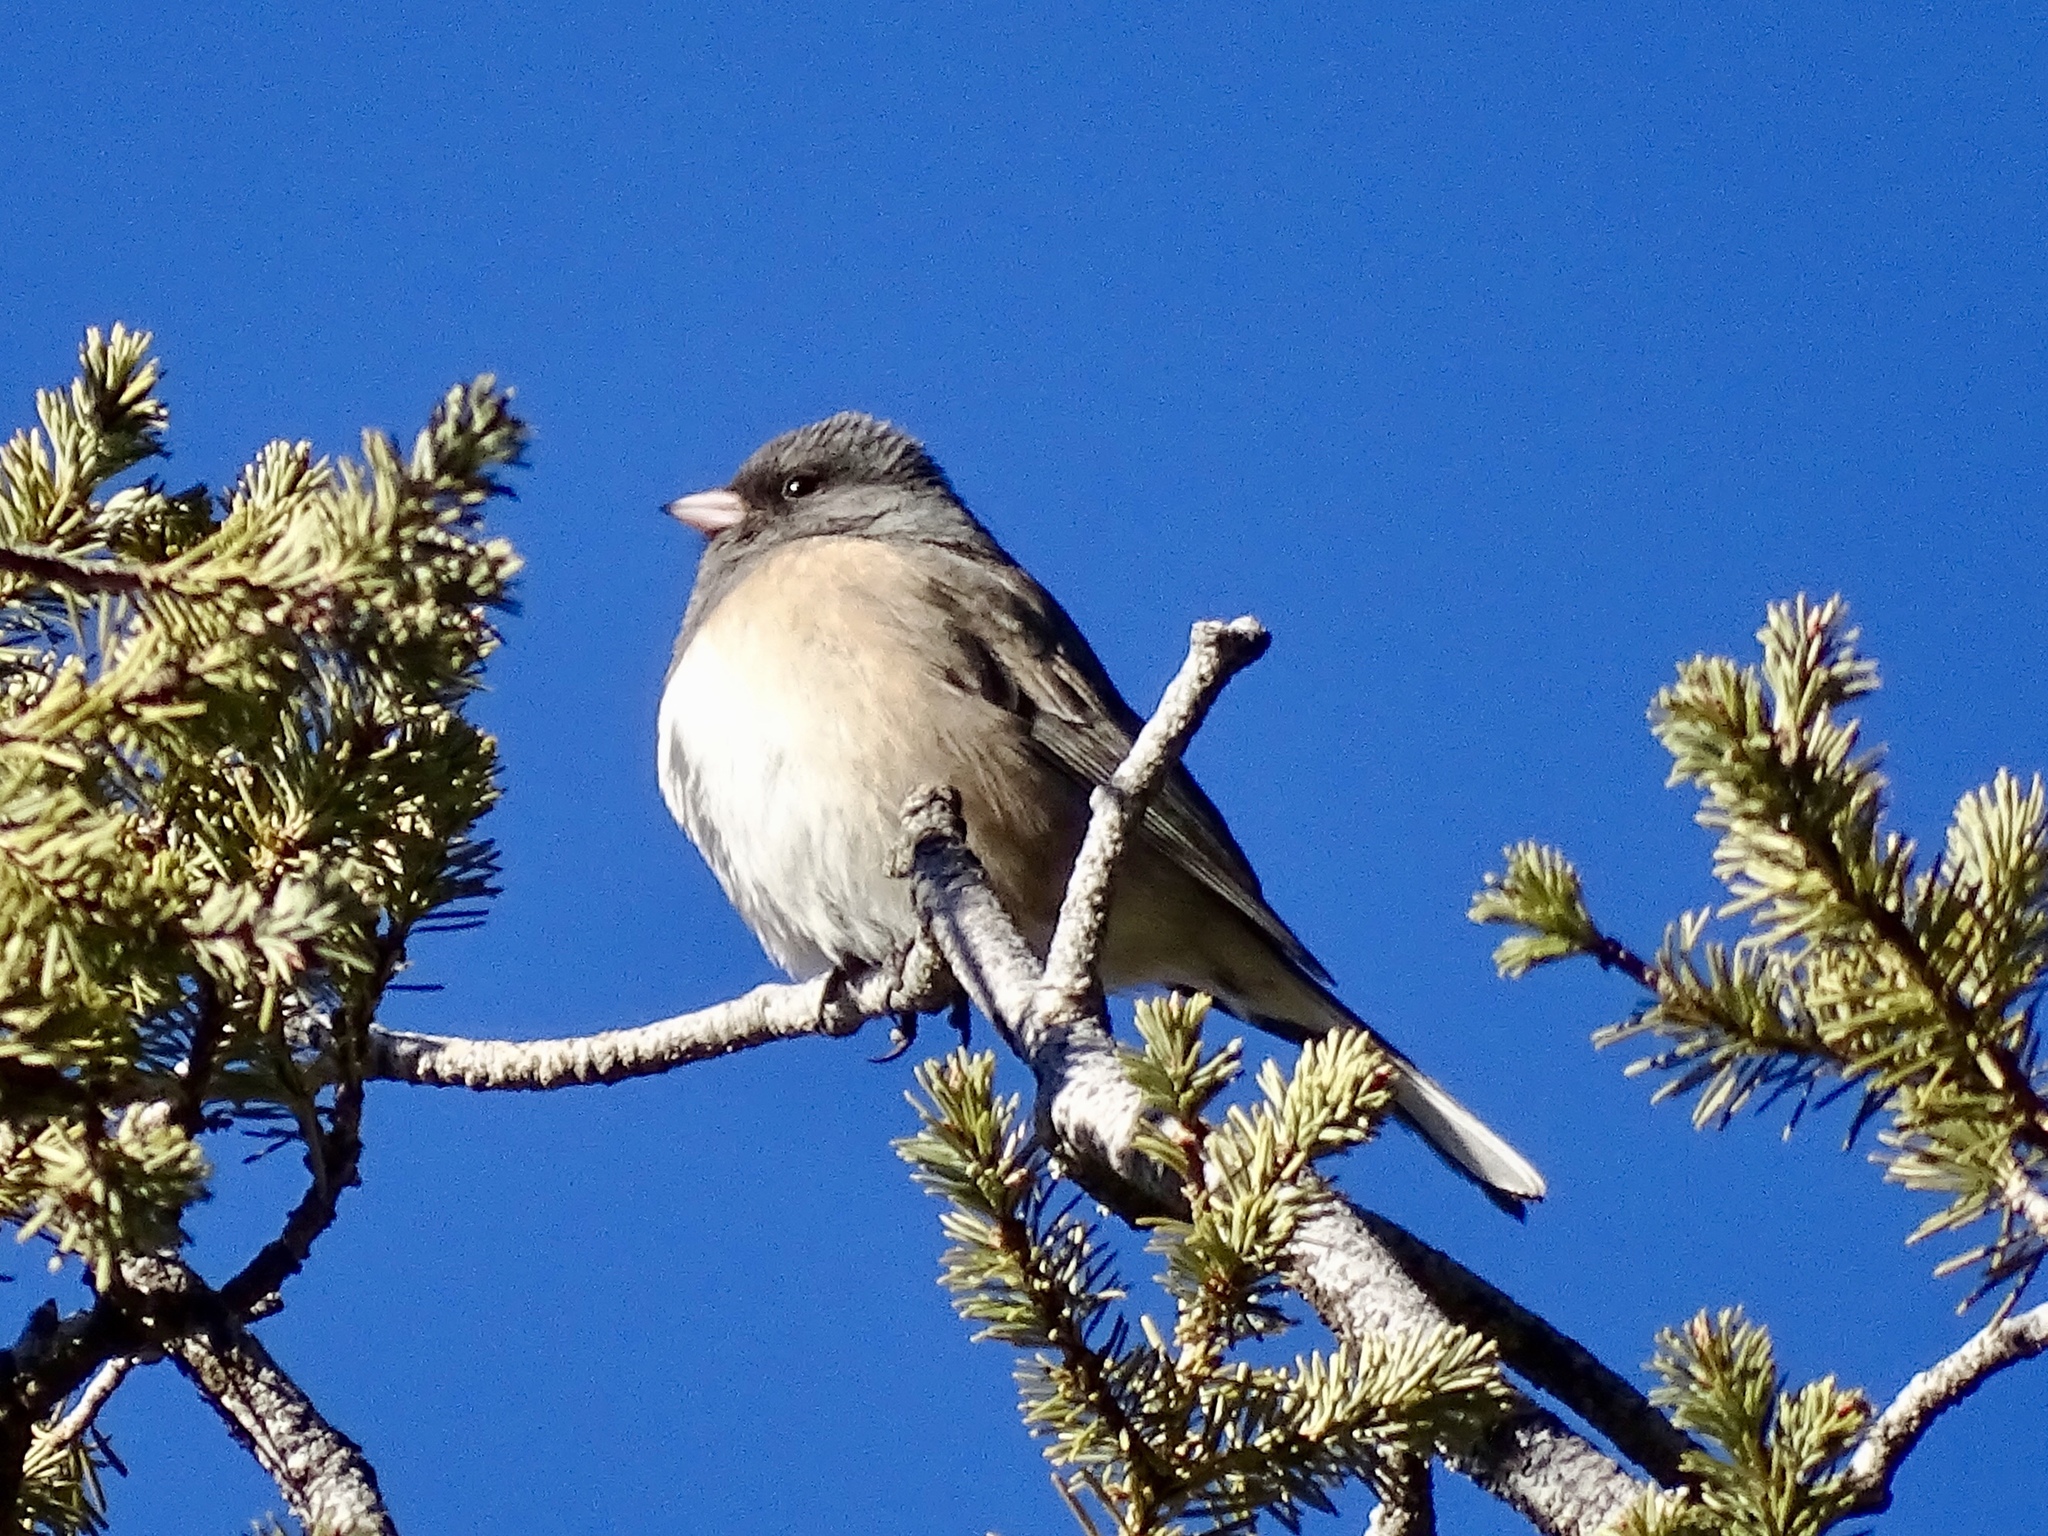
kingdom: Animalia
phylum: Chordata
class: Aves
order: Passeriformes
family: Passerellidae
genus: Junco
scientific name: Junco hyemalis
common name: Dark-eyed junco
